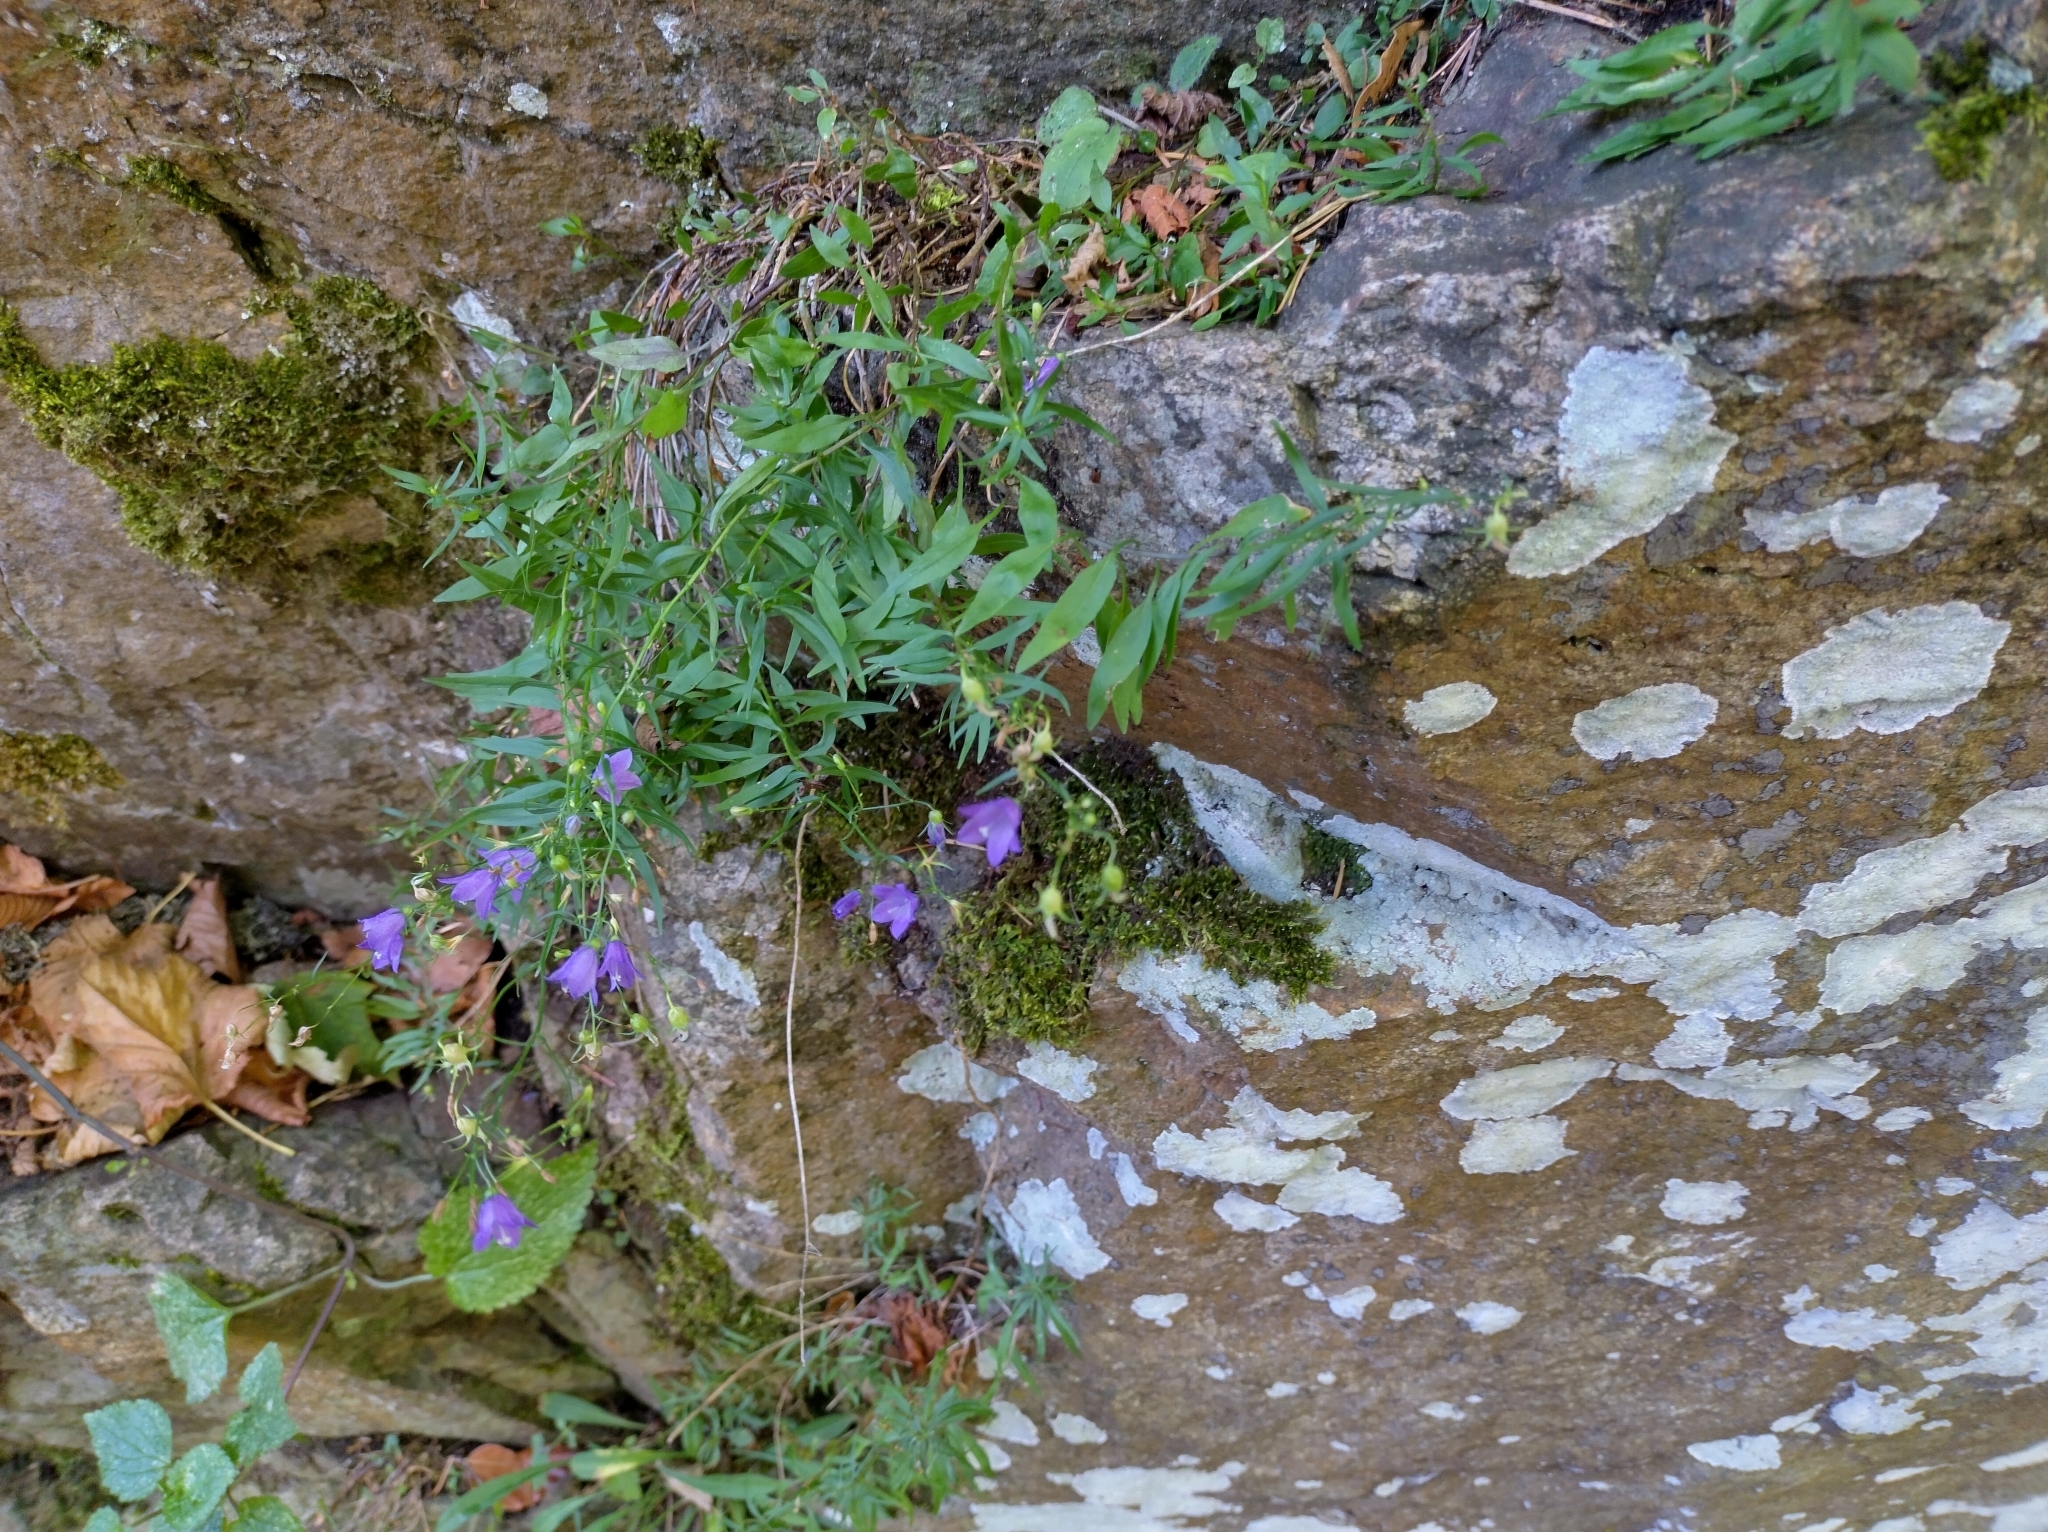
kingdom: Plantae
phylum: Tracheophyta
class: Magnoliopsida
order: Asterales
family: Campanulaceae
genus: Campanula
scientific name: Campanula rotundifolia
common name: Harebell
